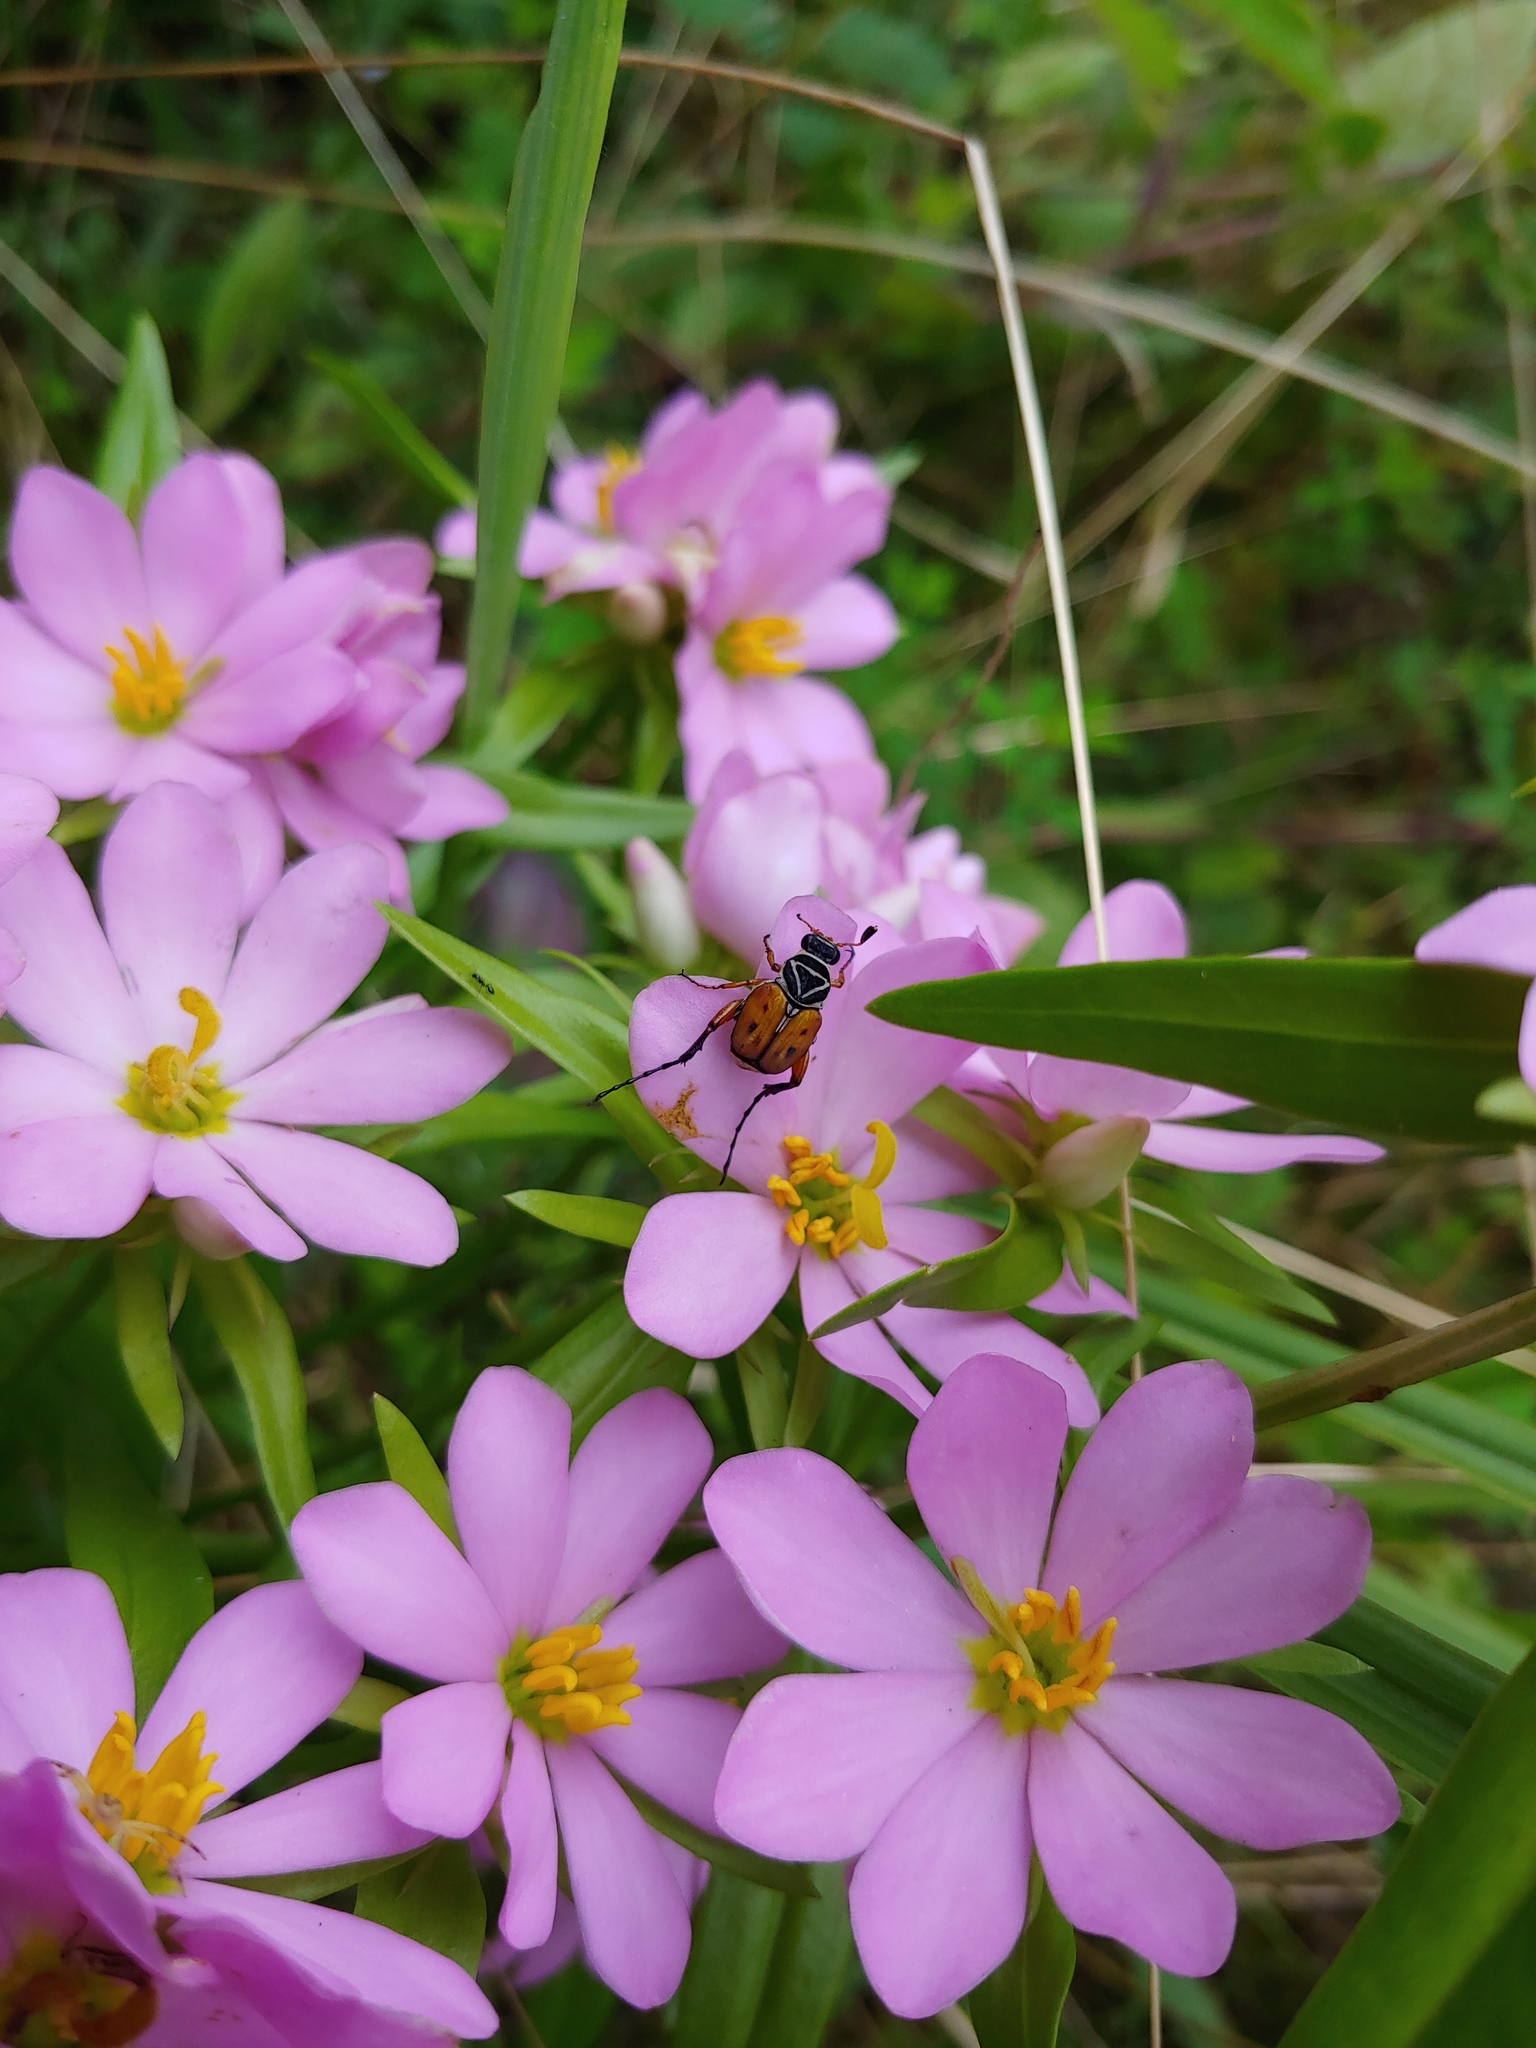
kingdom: Animalia
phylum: Arthropoda
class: Insecta
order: Coleoptera
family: Scarabaeidae
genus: Trigonopeltastes
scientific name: Trigonopeltastes delta
